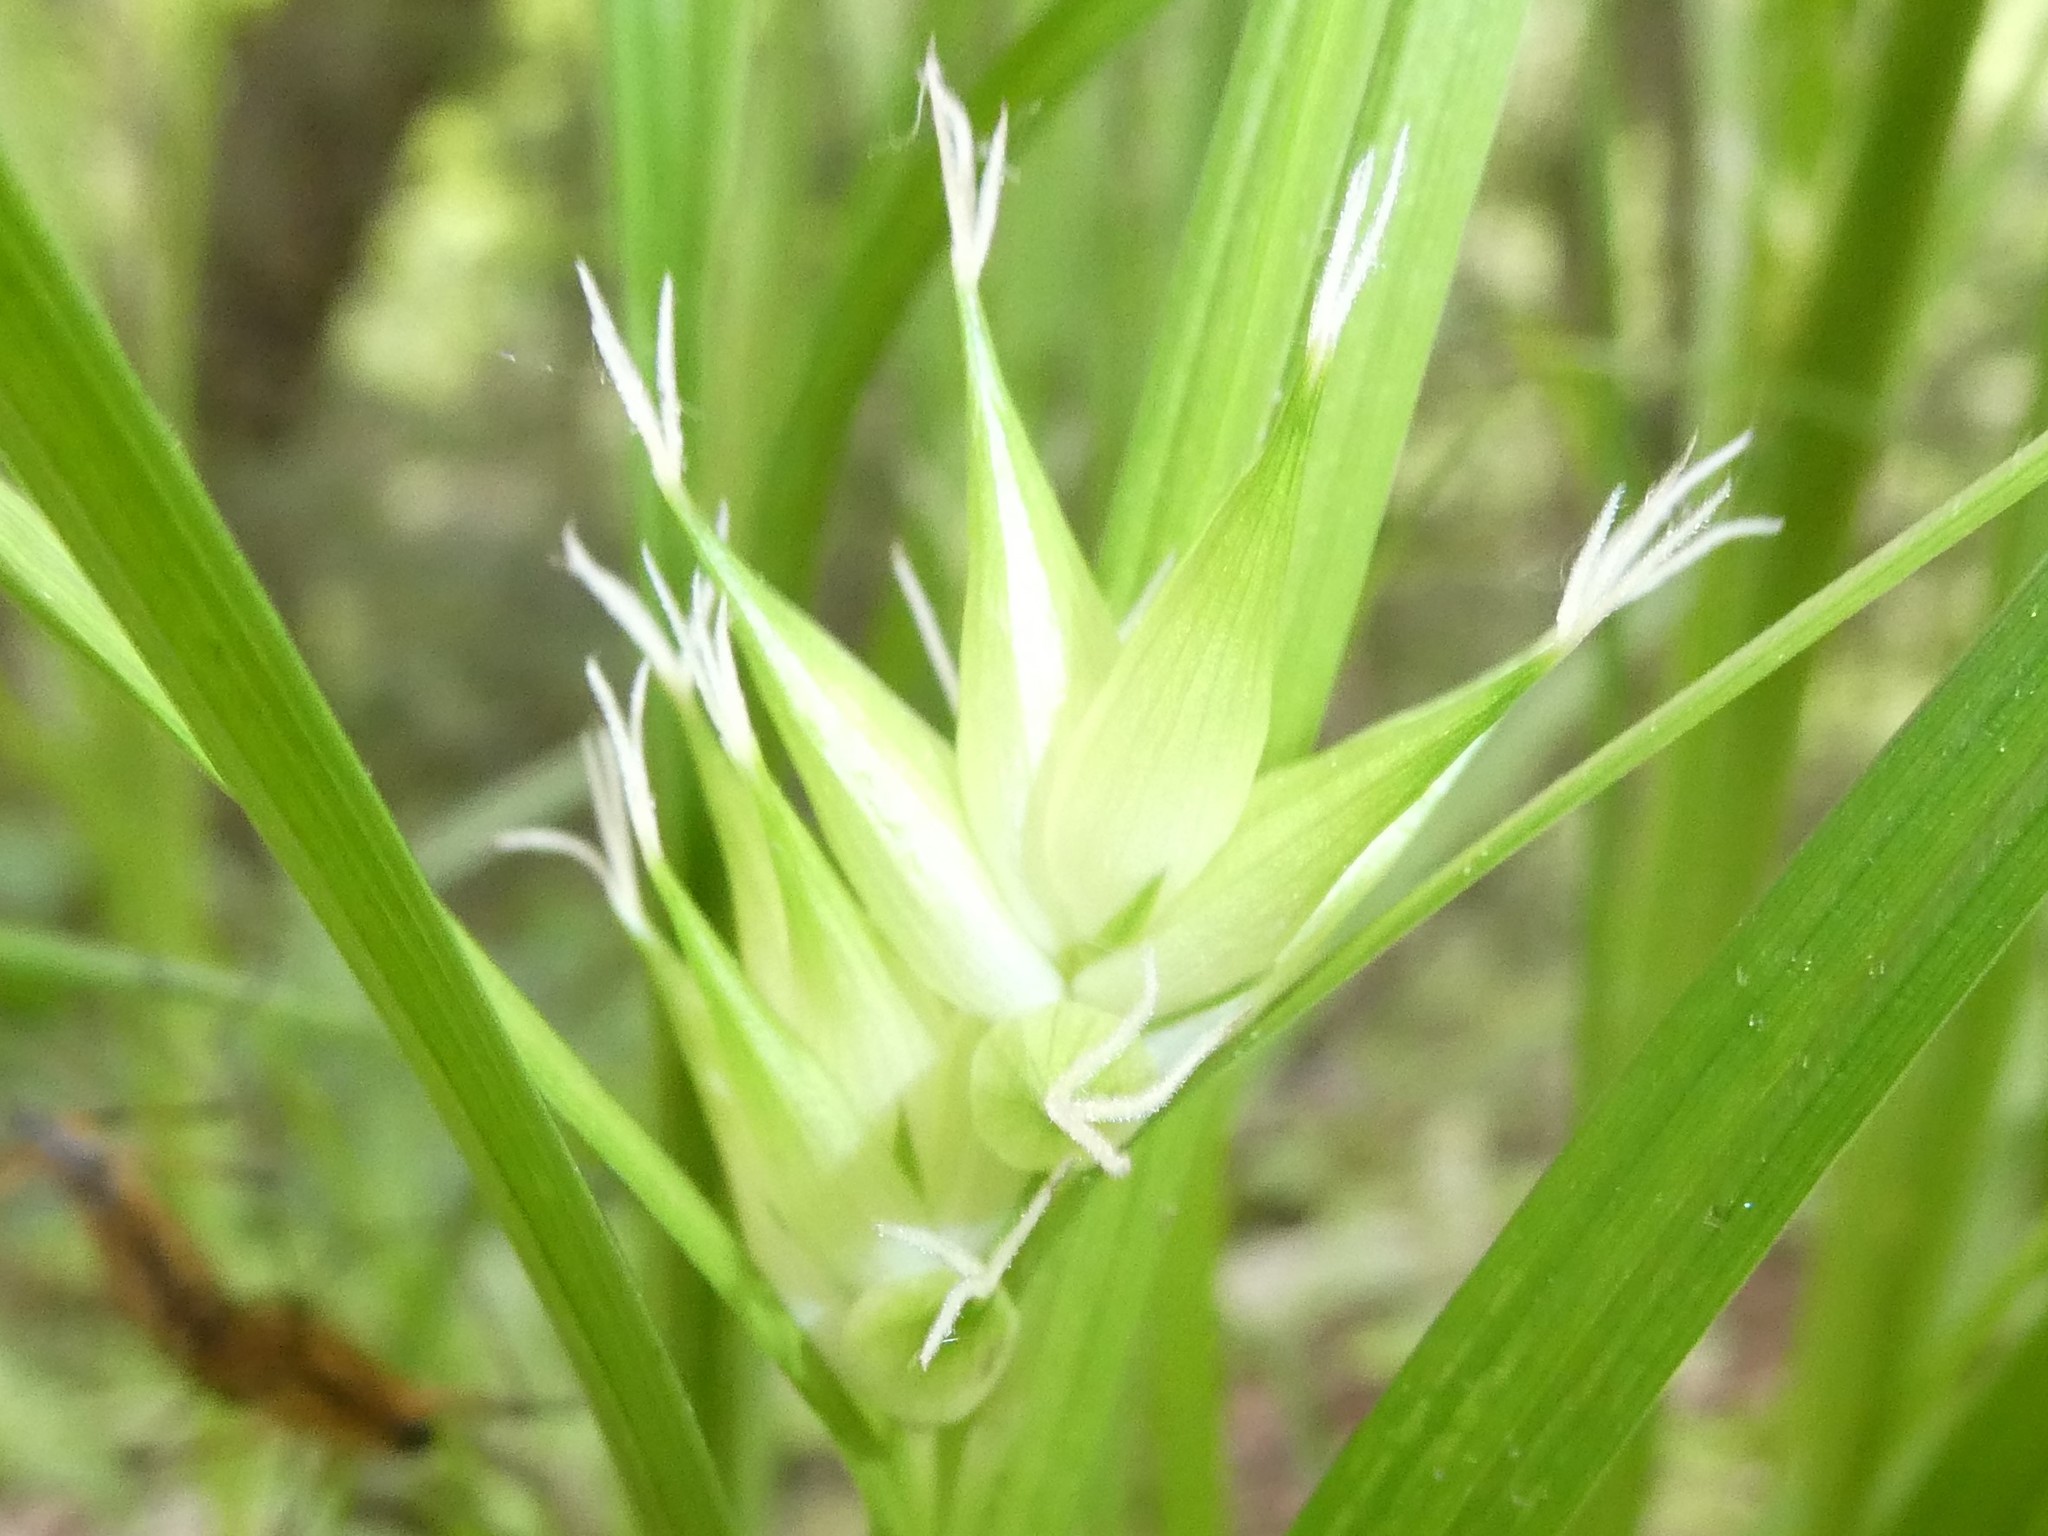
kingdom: Plantae
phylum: Tracheophyta
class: Liliopsida
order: Poales
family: Cyperaceae
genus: Carex
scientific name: Carex intumescens
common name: Greater bladder sedge
